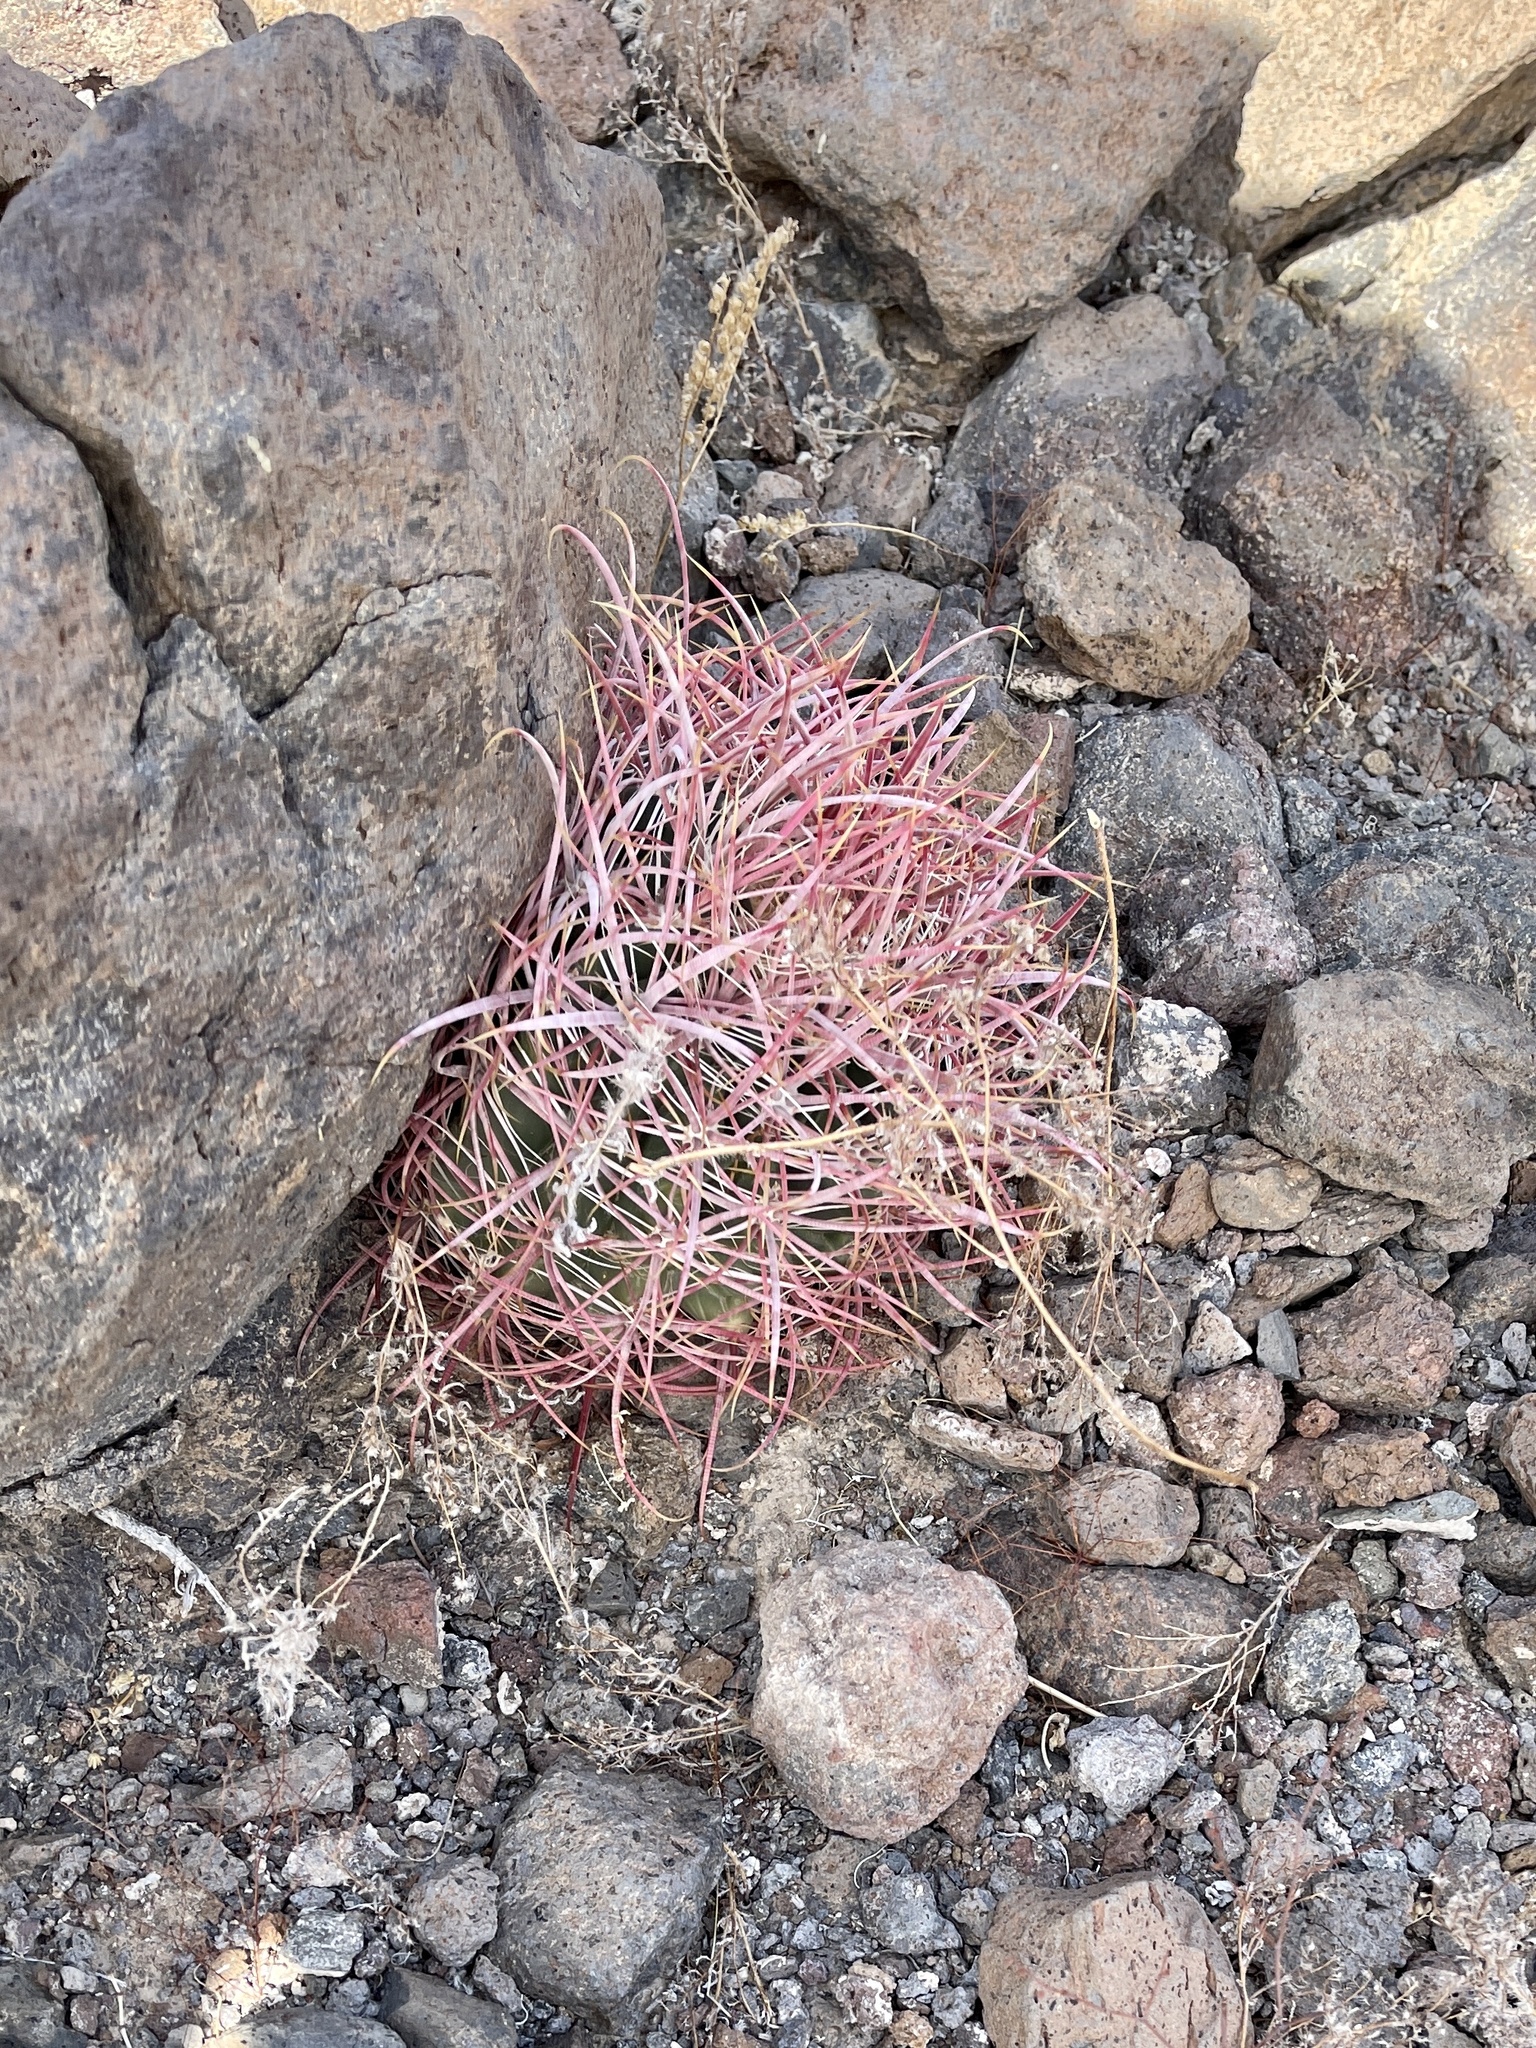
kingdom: Plantae
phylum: Tracheophyta
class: Magnoliopsida
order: Caryophyllales
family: Cactaceae
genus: Ferocactus
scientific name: Ferocactus cylindraceus
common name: California barrel cactus
